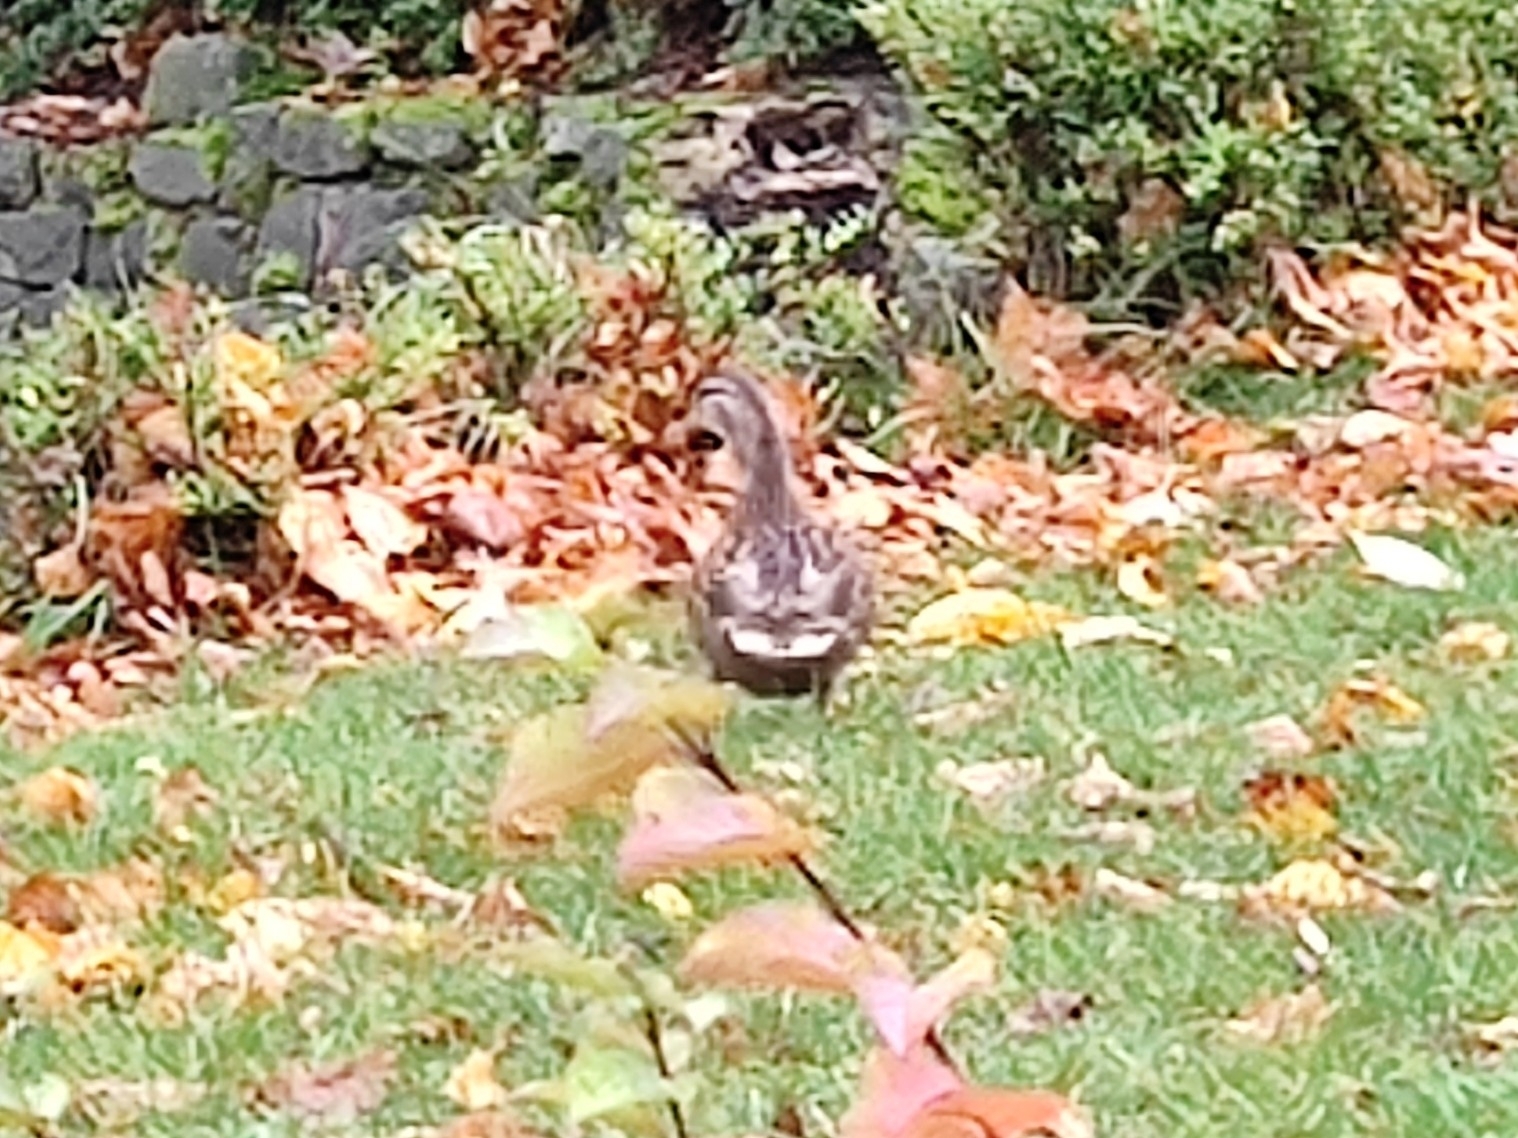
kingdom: Animalia
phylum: Chordata
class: Aves
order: Anseriformes
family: Anatidae
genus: Anas
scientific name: Anas platyrhynchos
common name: Mallard
